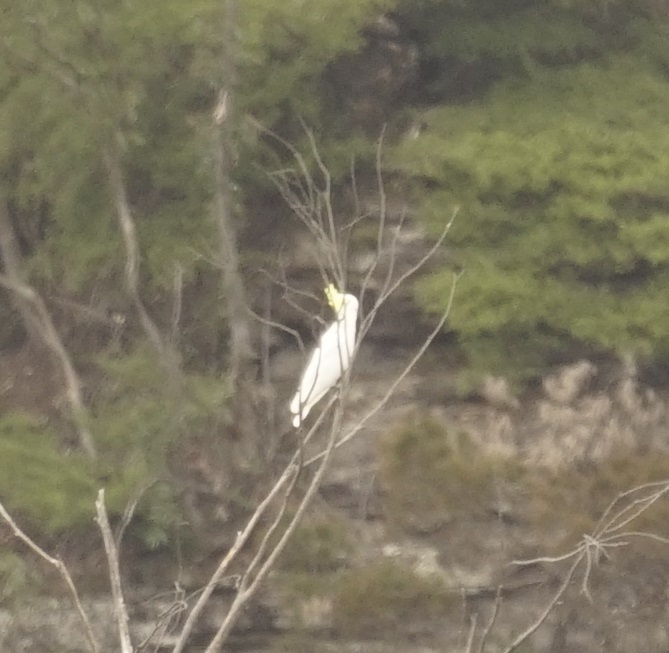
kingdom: Animalia
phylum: Chordata
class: Aves
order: Psittaciformes
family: Psittacidae
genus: Cacatua
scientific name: Cacatua galerita
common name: Sulphur-crested cockatoo
